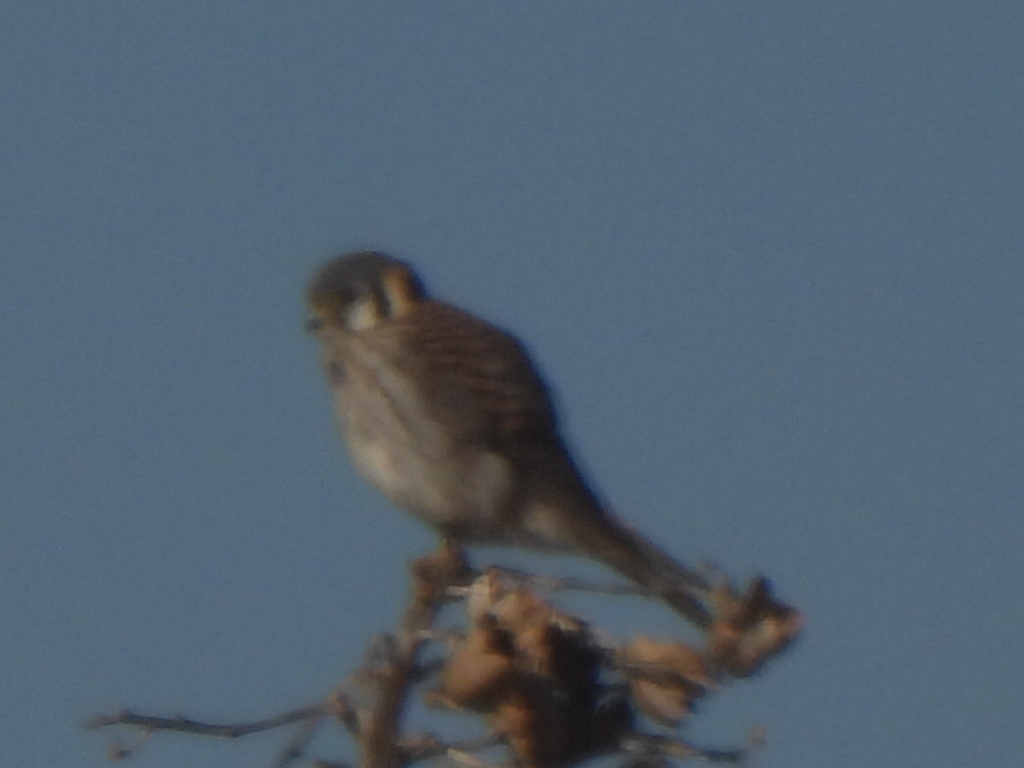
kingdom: Animalia
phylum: Chordata
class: Aves
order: Falconiformes
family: Falconidae
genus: Falco
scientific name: Falco sparverius
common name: American kestrel
